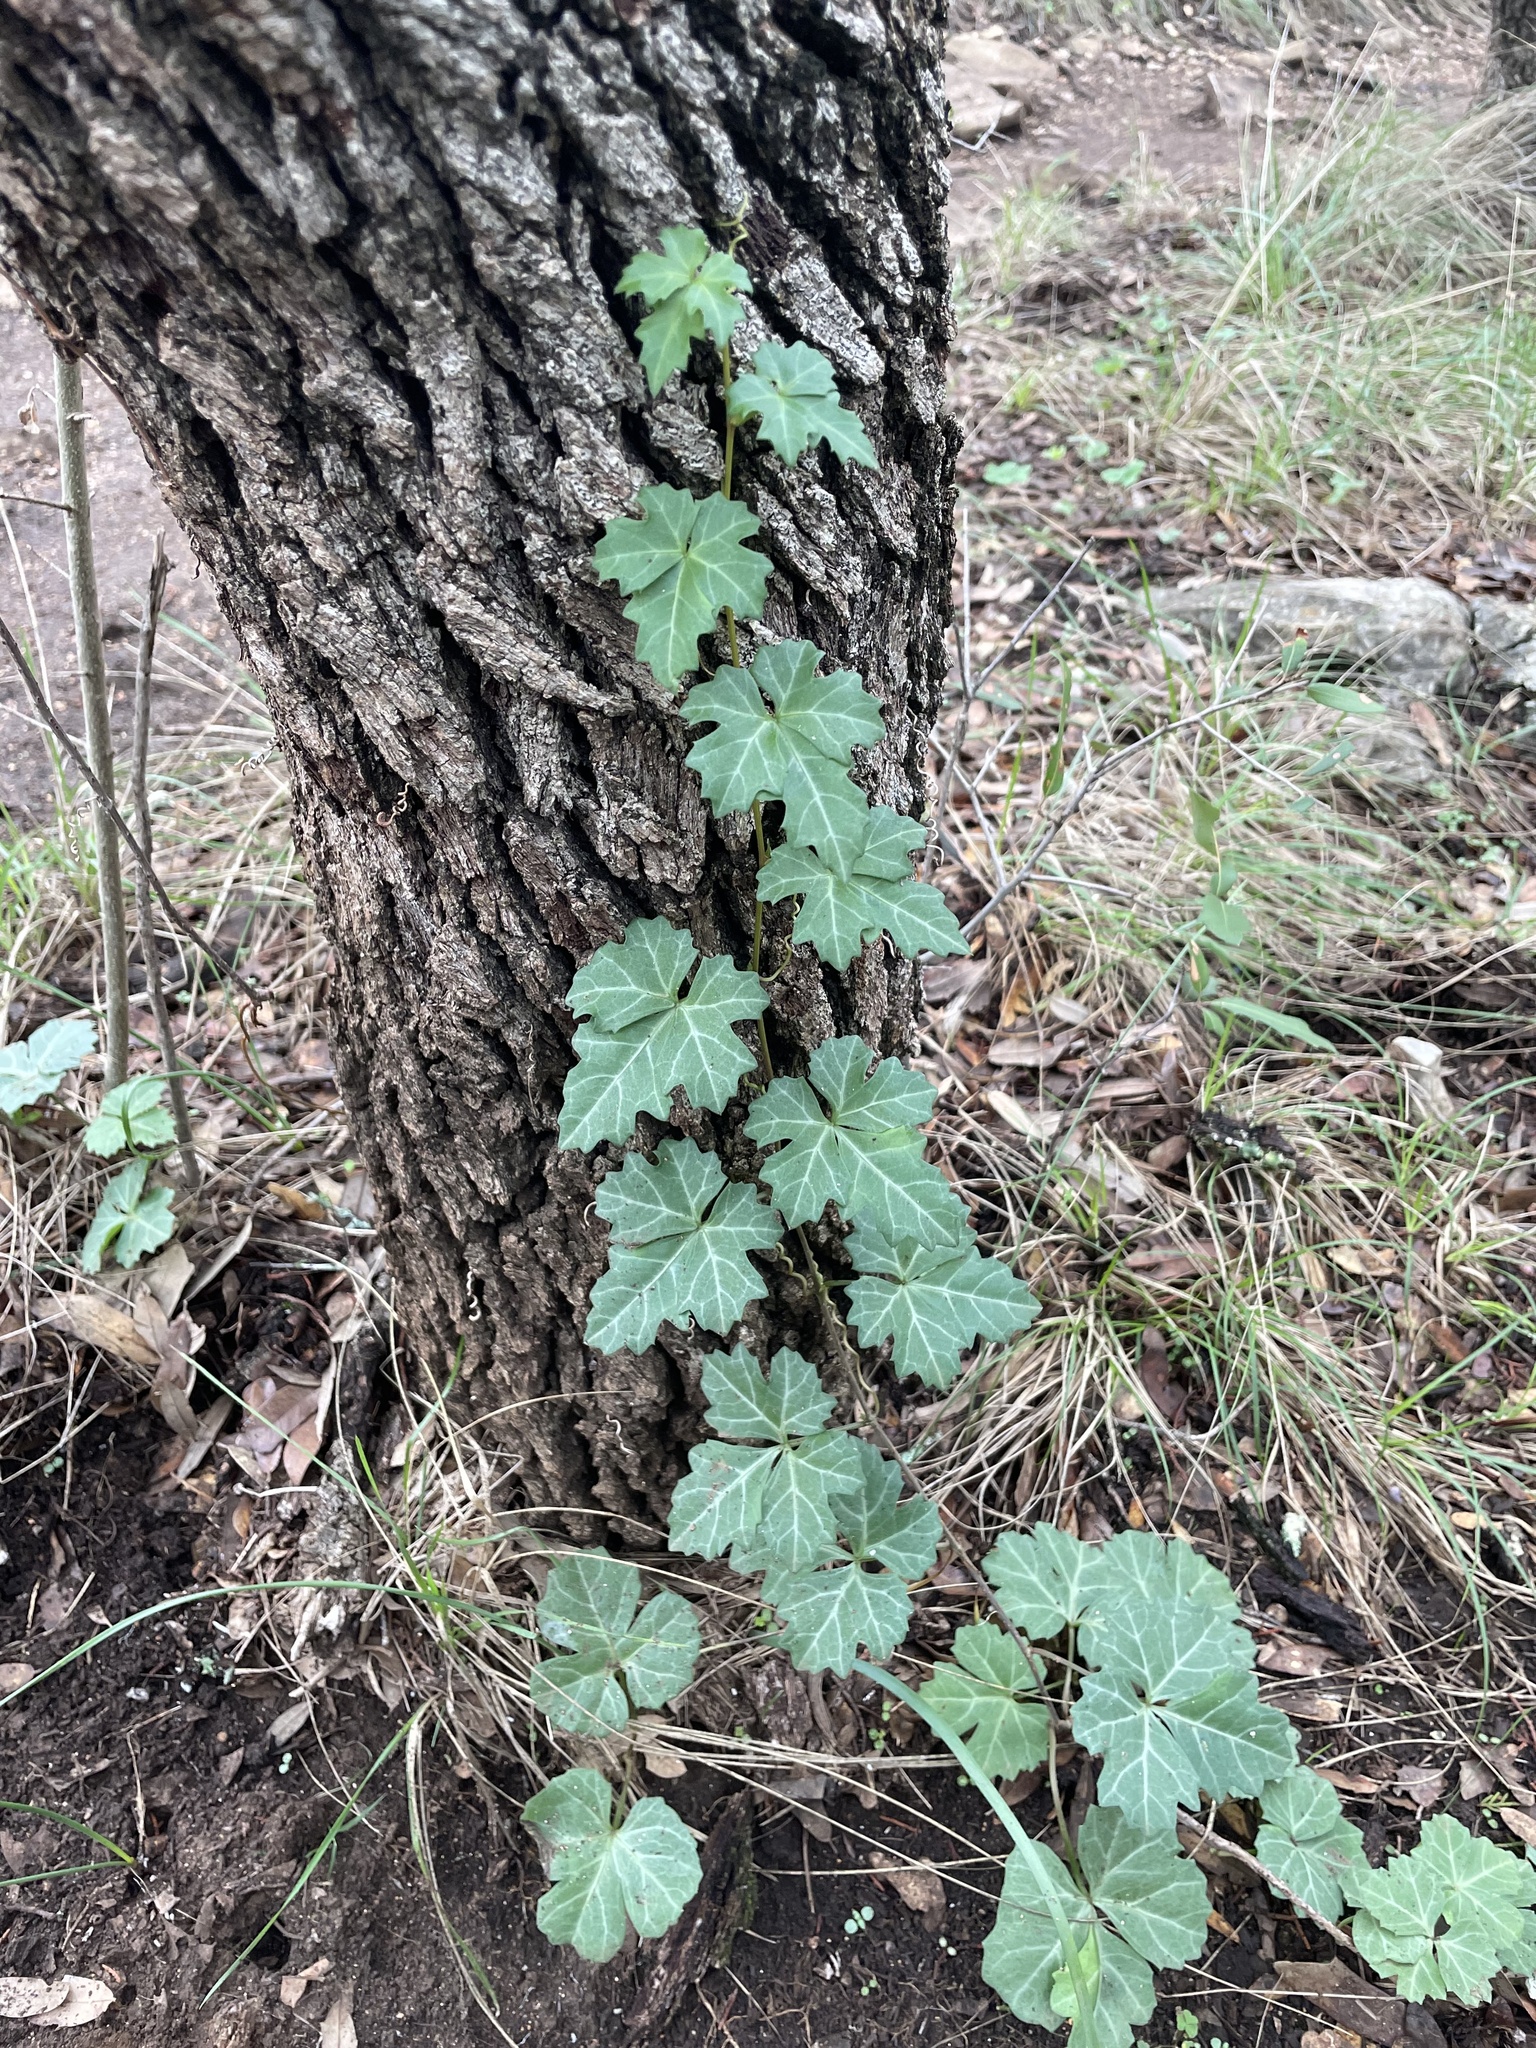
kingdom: Plantae
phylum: Tracheophyta
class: Magnoliopsida
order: Vitales
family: Vitaceae
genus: Cissus
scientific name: Cissus trifoliata
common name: Vine-sorrel
